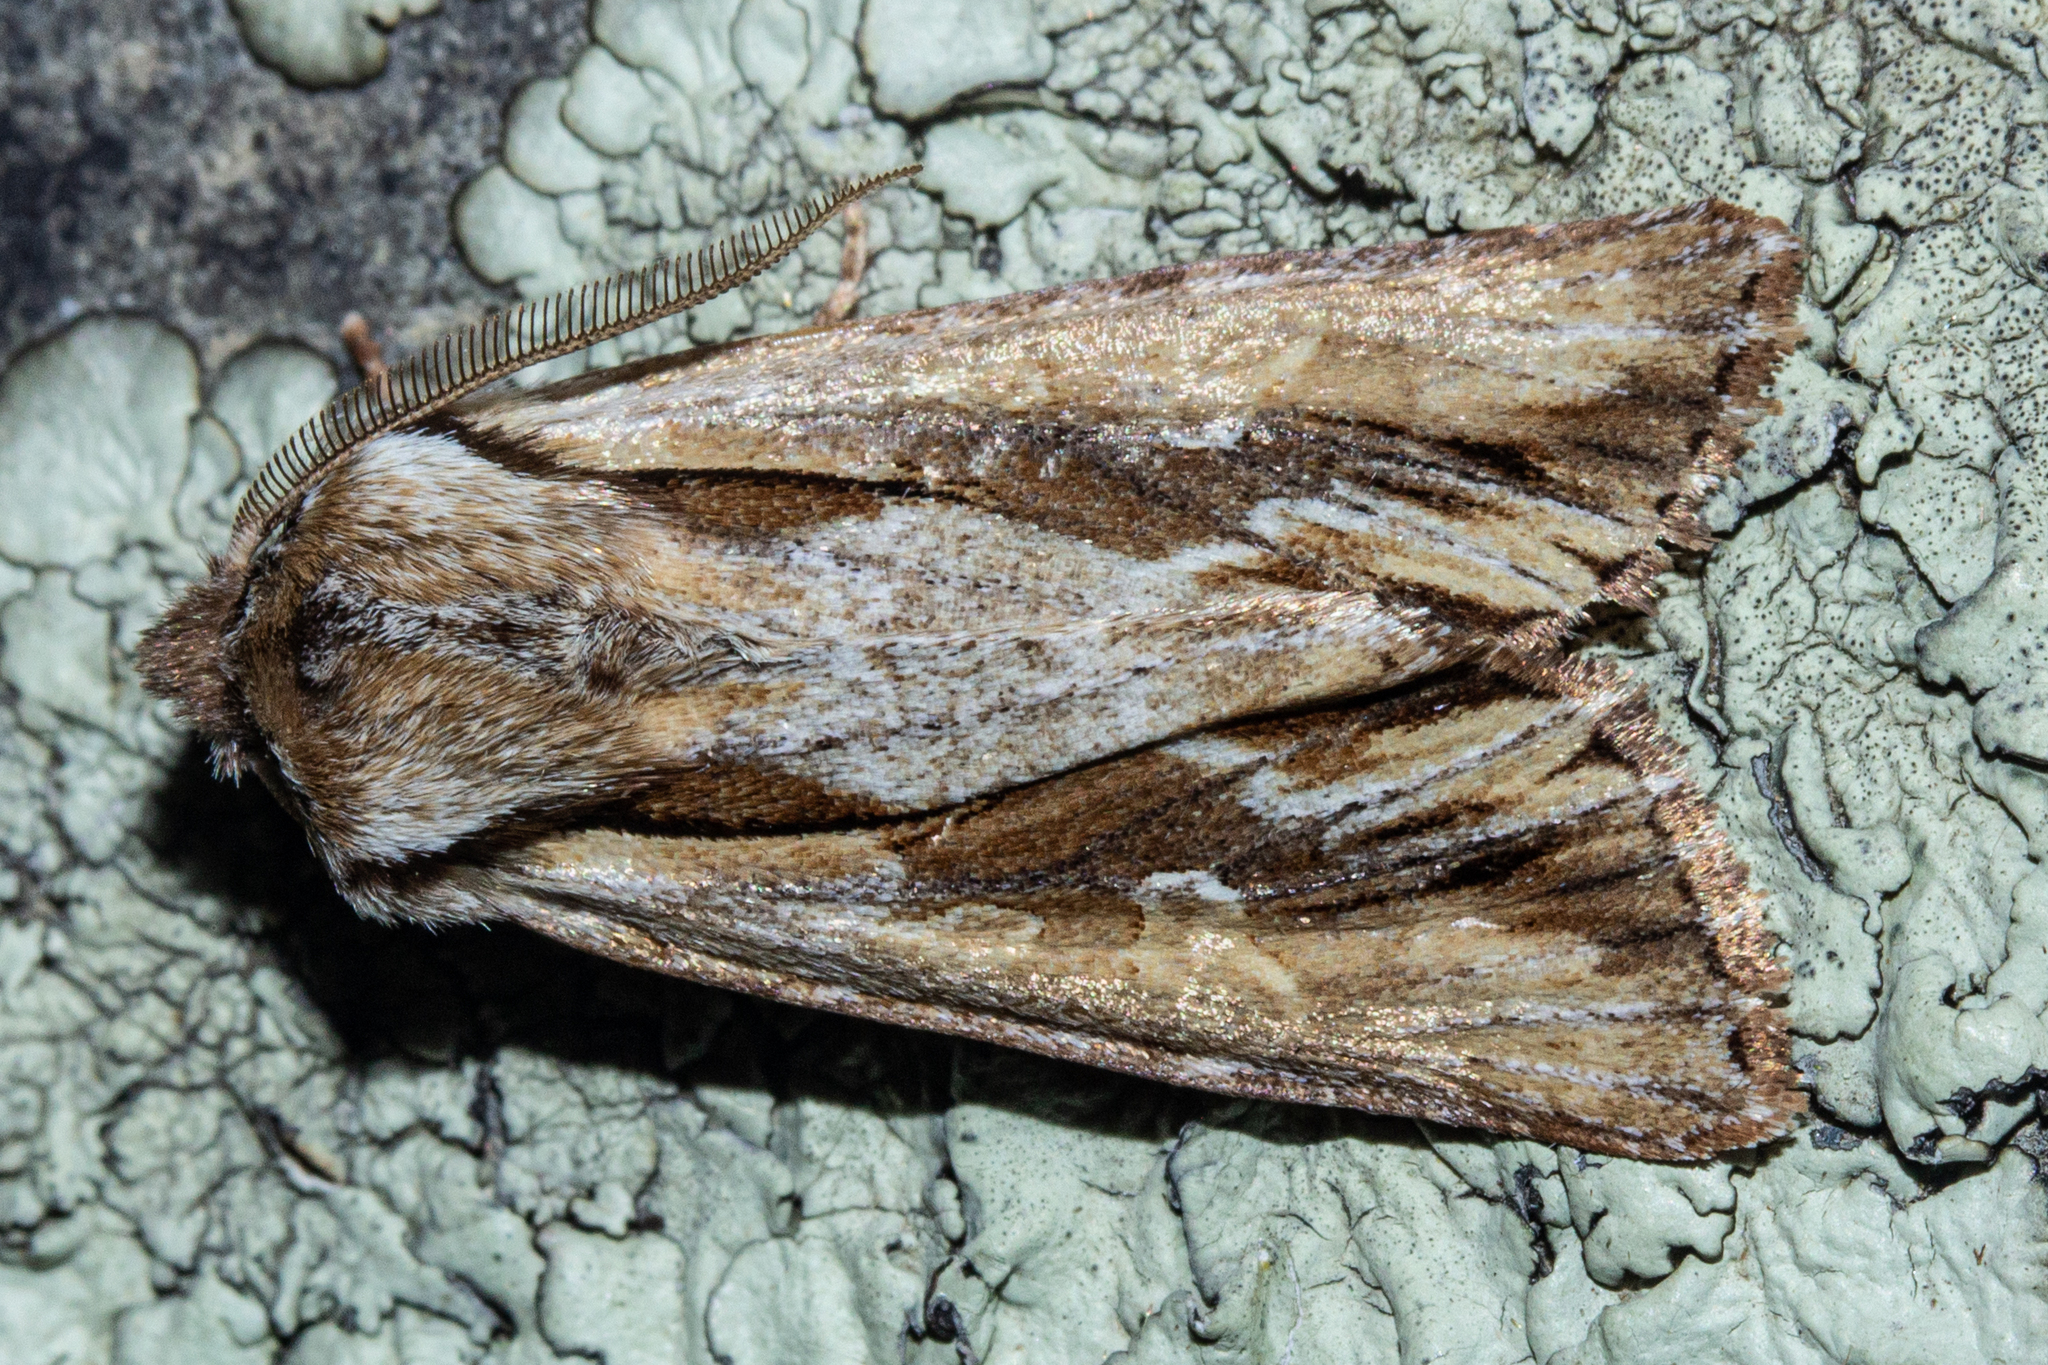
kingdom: Animalia
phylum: Arthropoda
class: Insecta
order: Lepidoptera
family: Noctuidae
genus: Ichneutica
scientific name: Ichneutica
